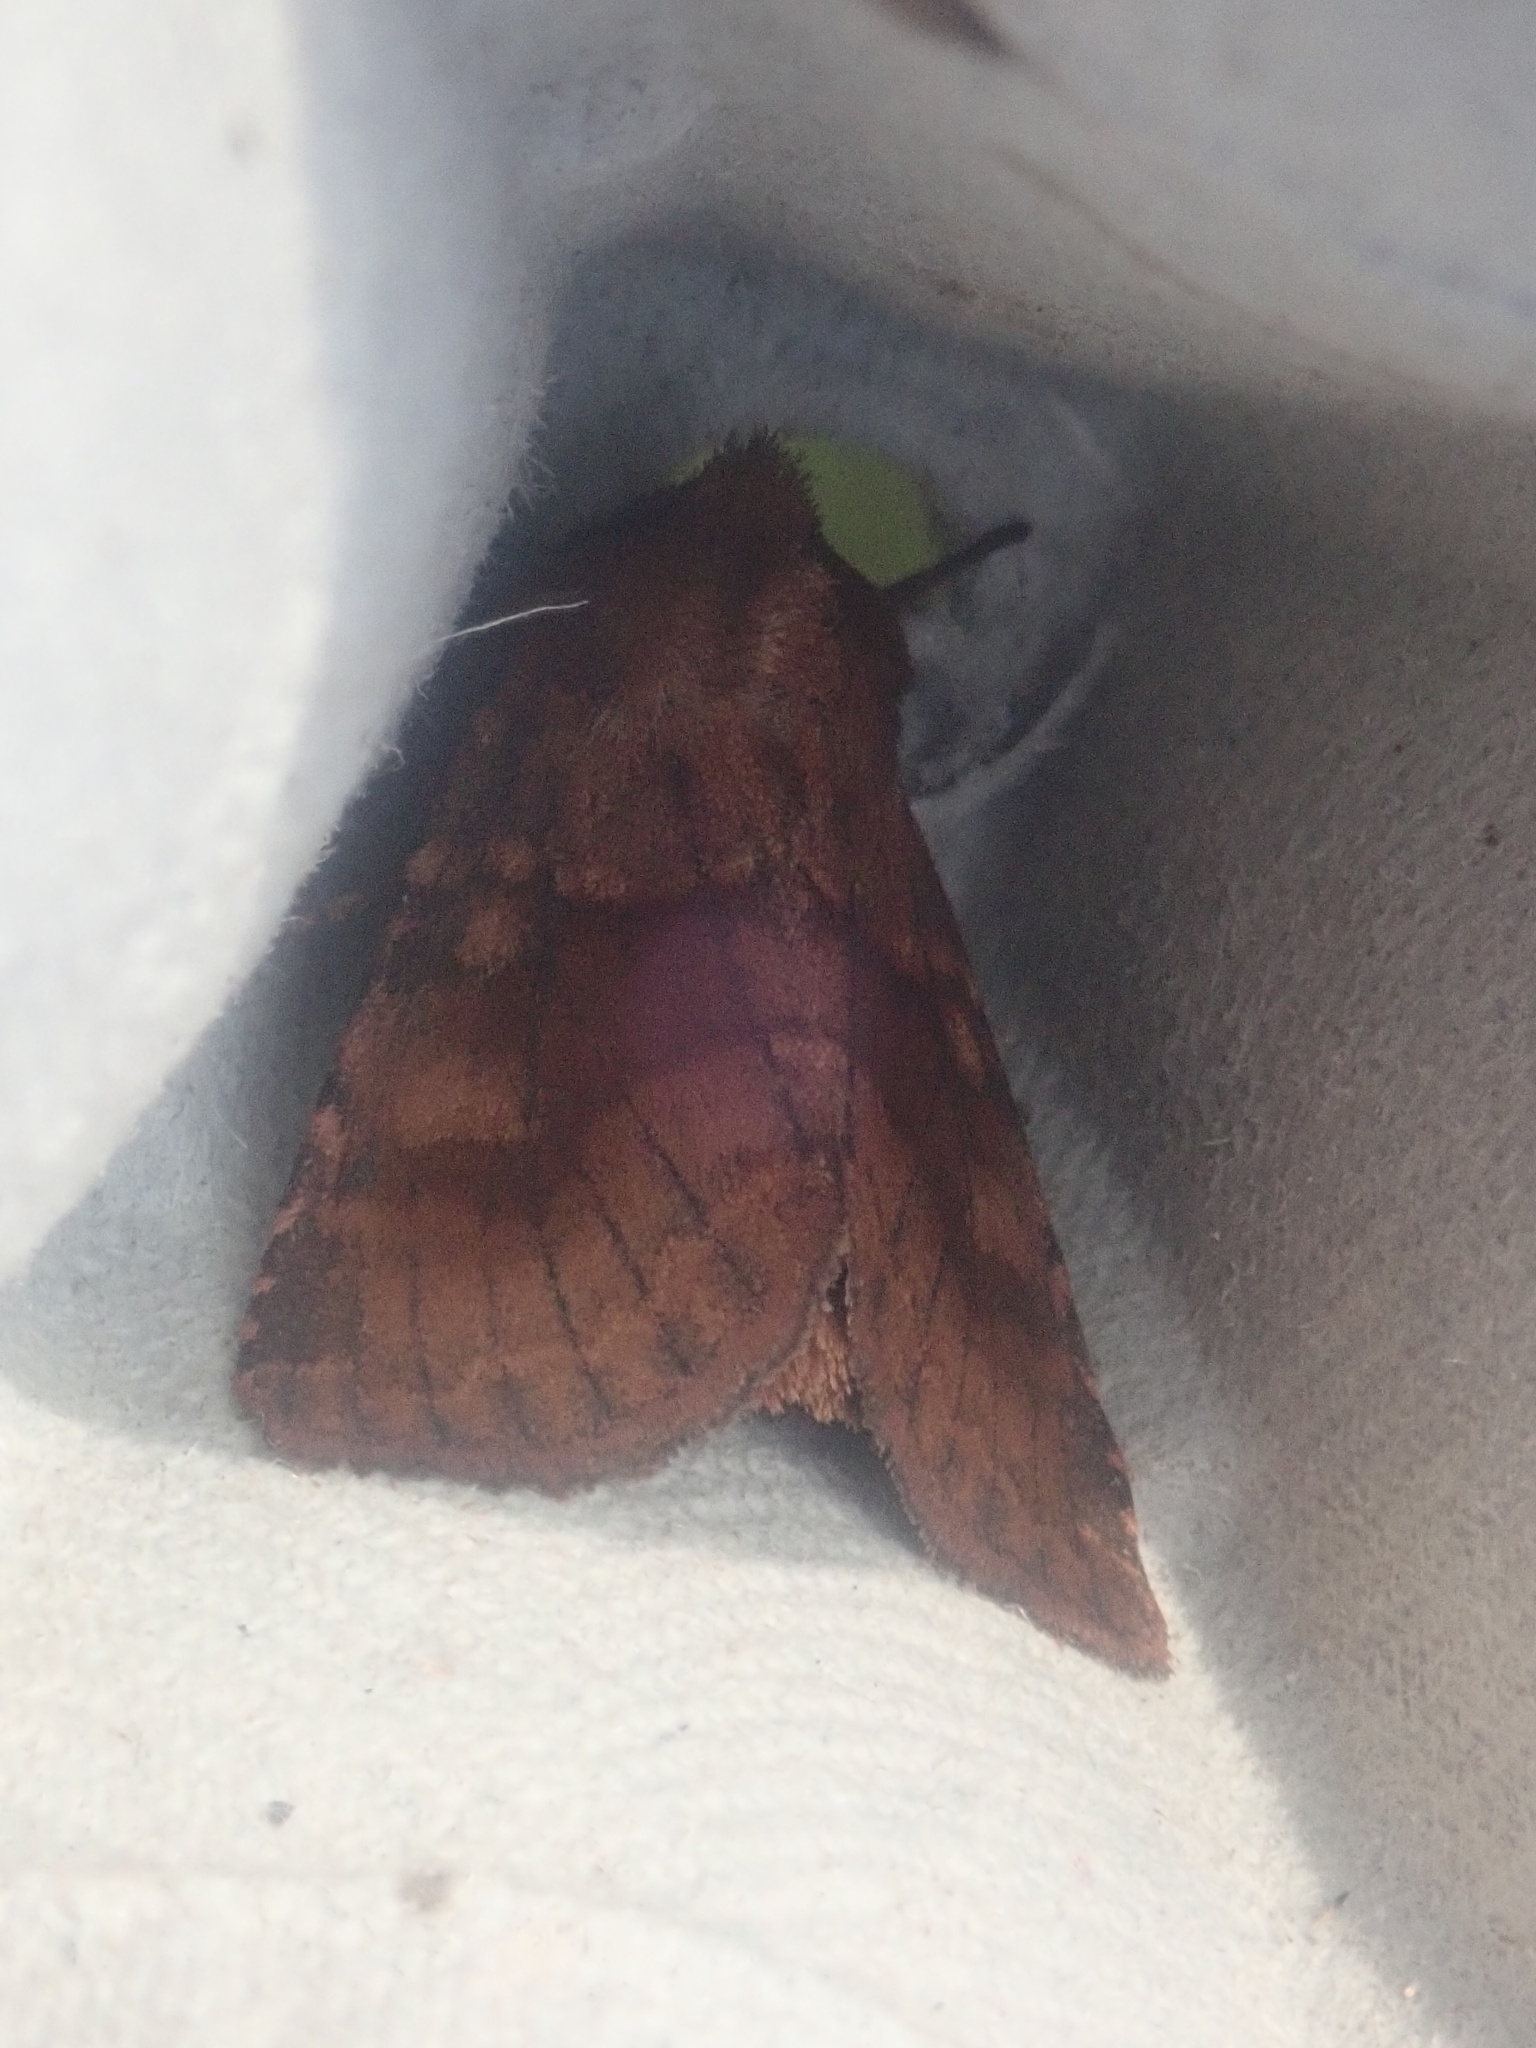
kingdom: Animalia
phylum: Arthropoda
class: Insecta
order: Lepidoptera
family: Noctuidae
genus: Nephelodes
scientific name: Nephelodes minians
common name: Bronzed cutworm
